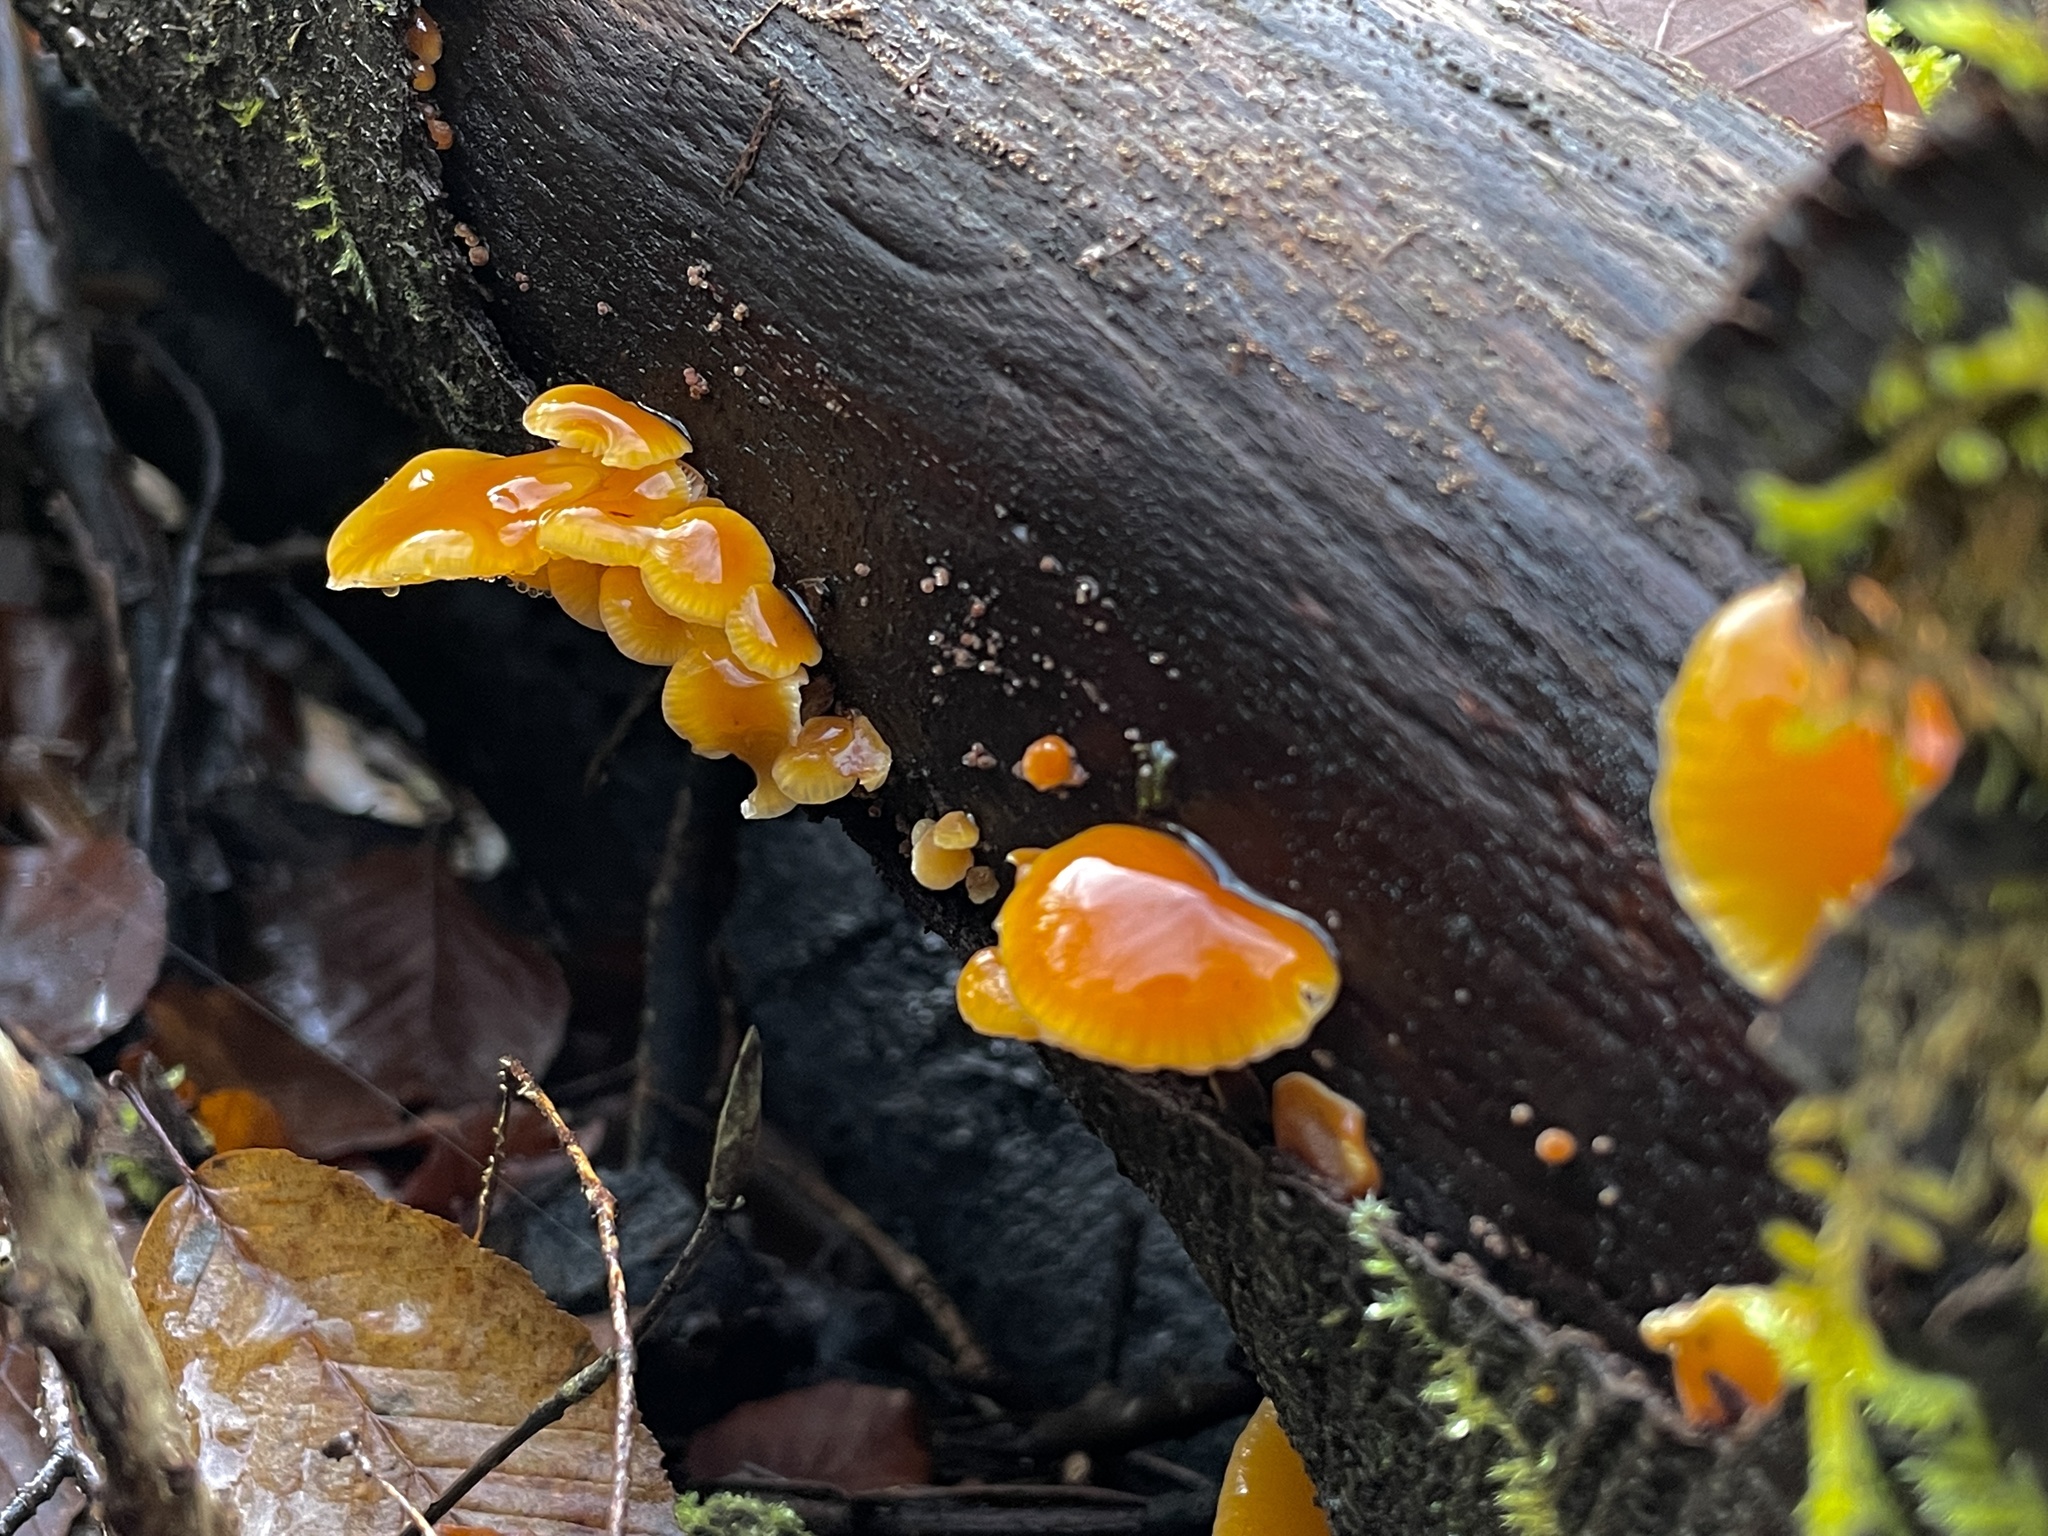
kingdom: Fungi
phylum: Basidiomycota
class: Agaricomycetes
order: Agaricales
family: Physalacriaceae
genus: Flammulina
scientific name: Flammulina
